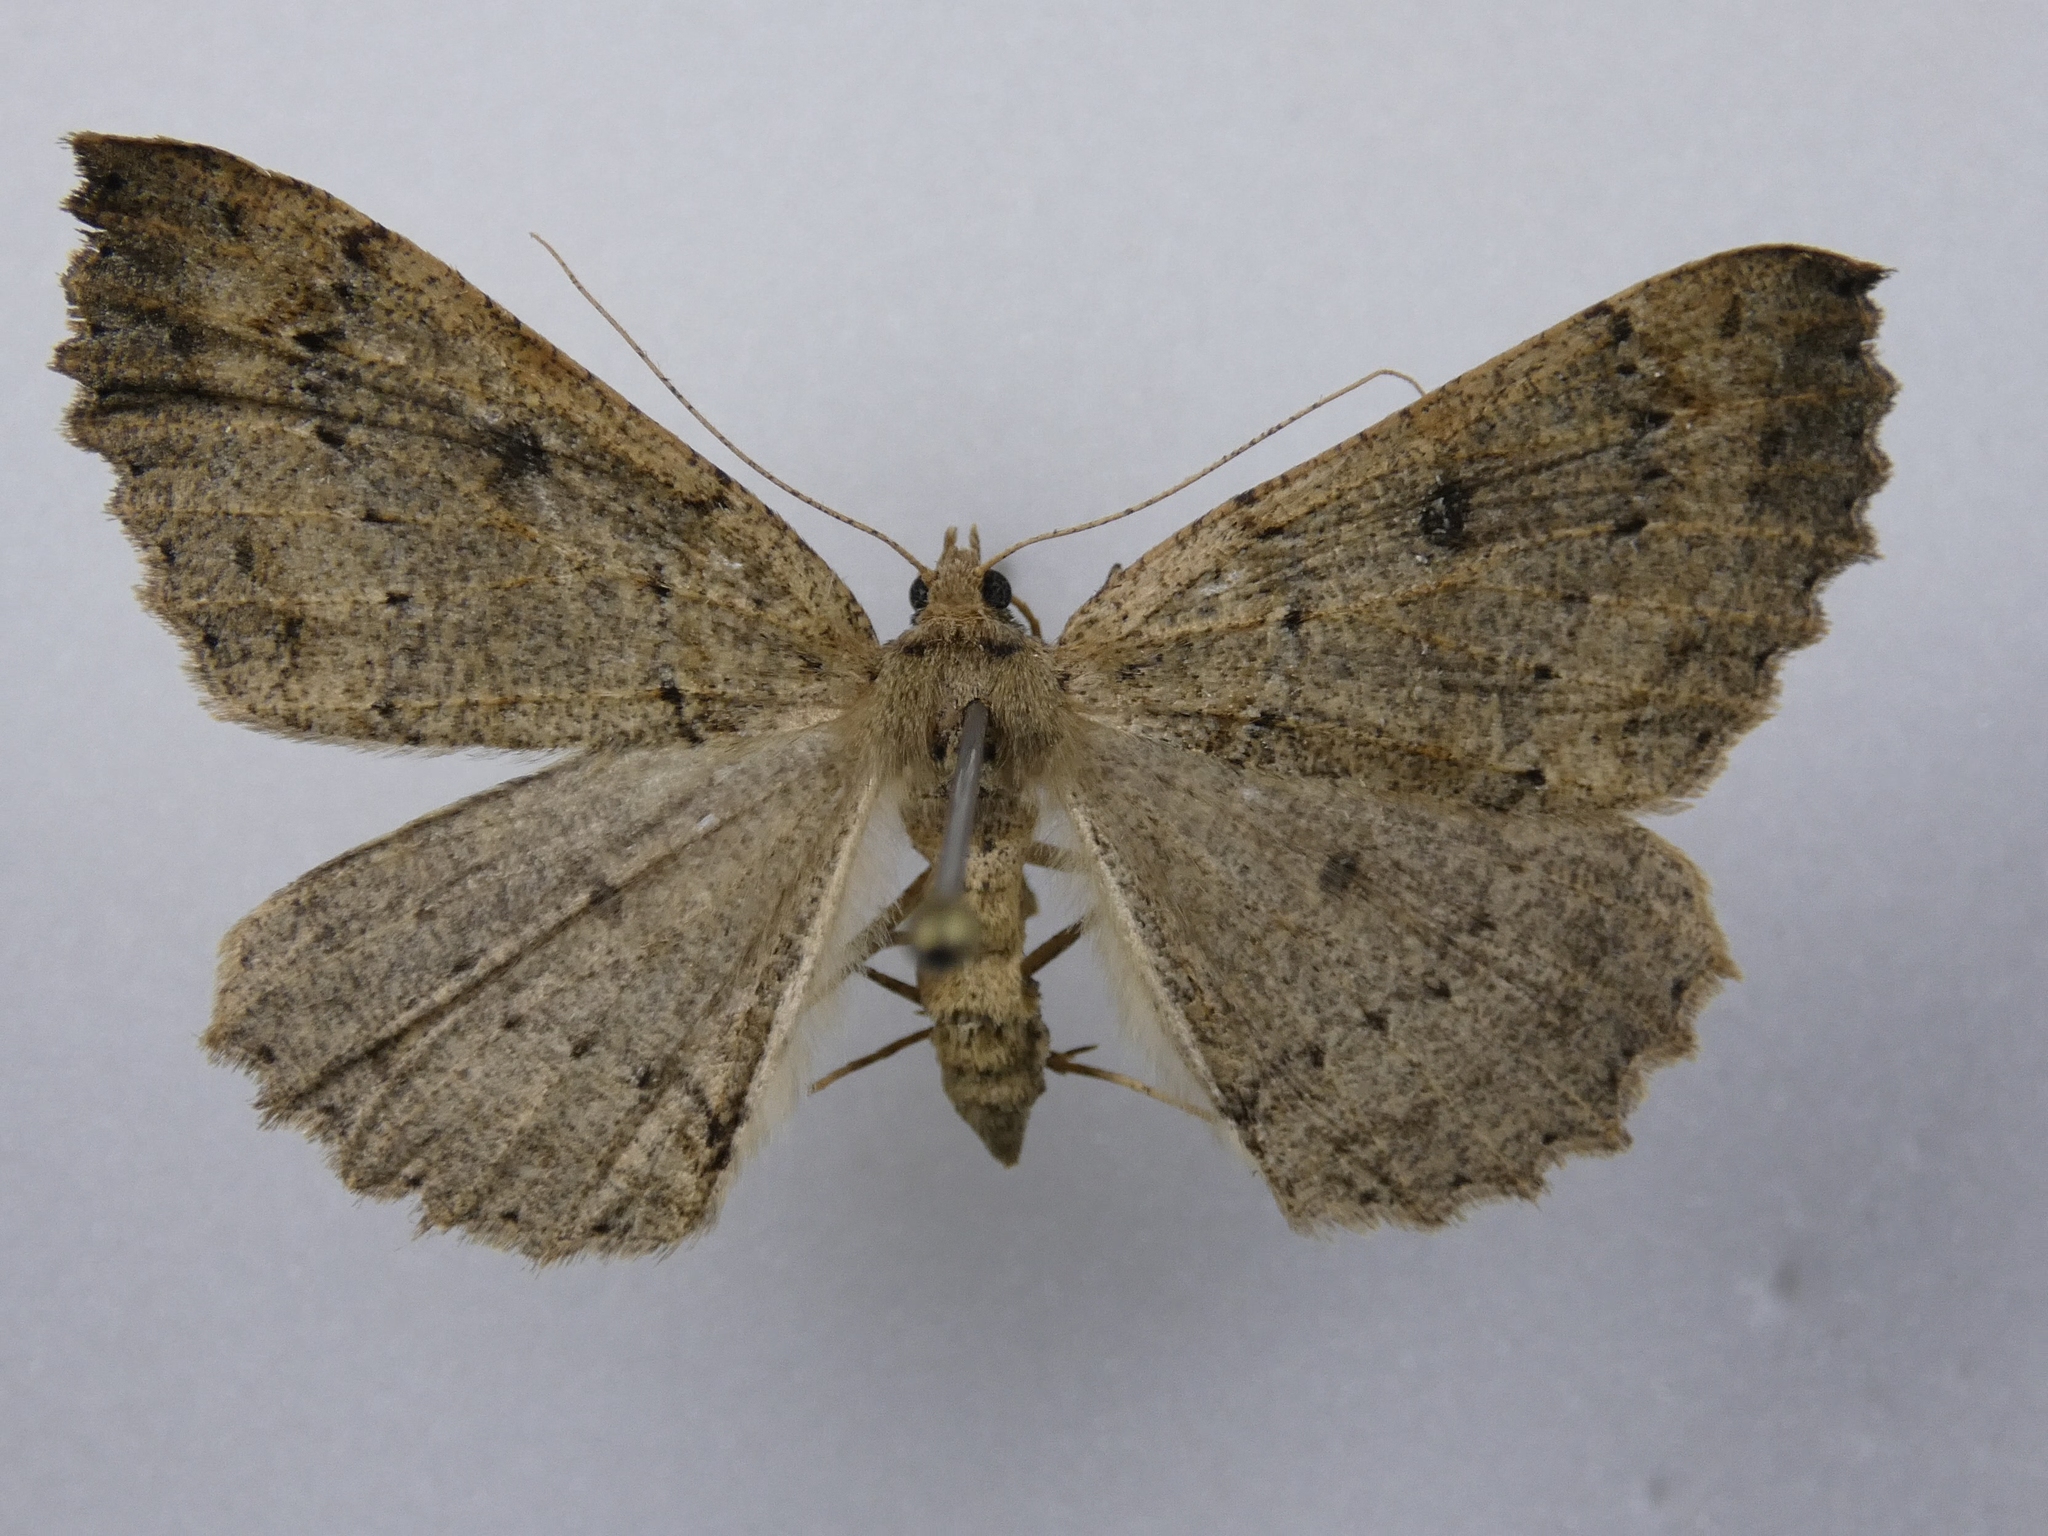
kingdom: Animalia
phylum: Arthropoda
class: Insecta
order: Lepidoptera
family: Geometridae
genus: Cleora
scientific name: Cleora scriptaria
